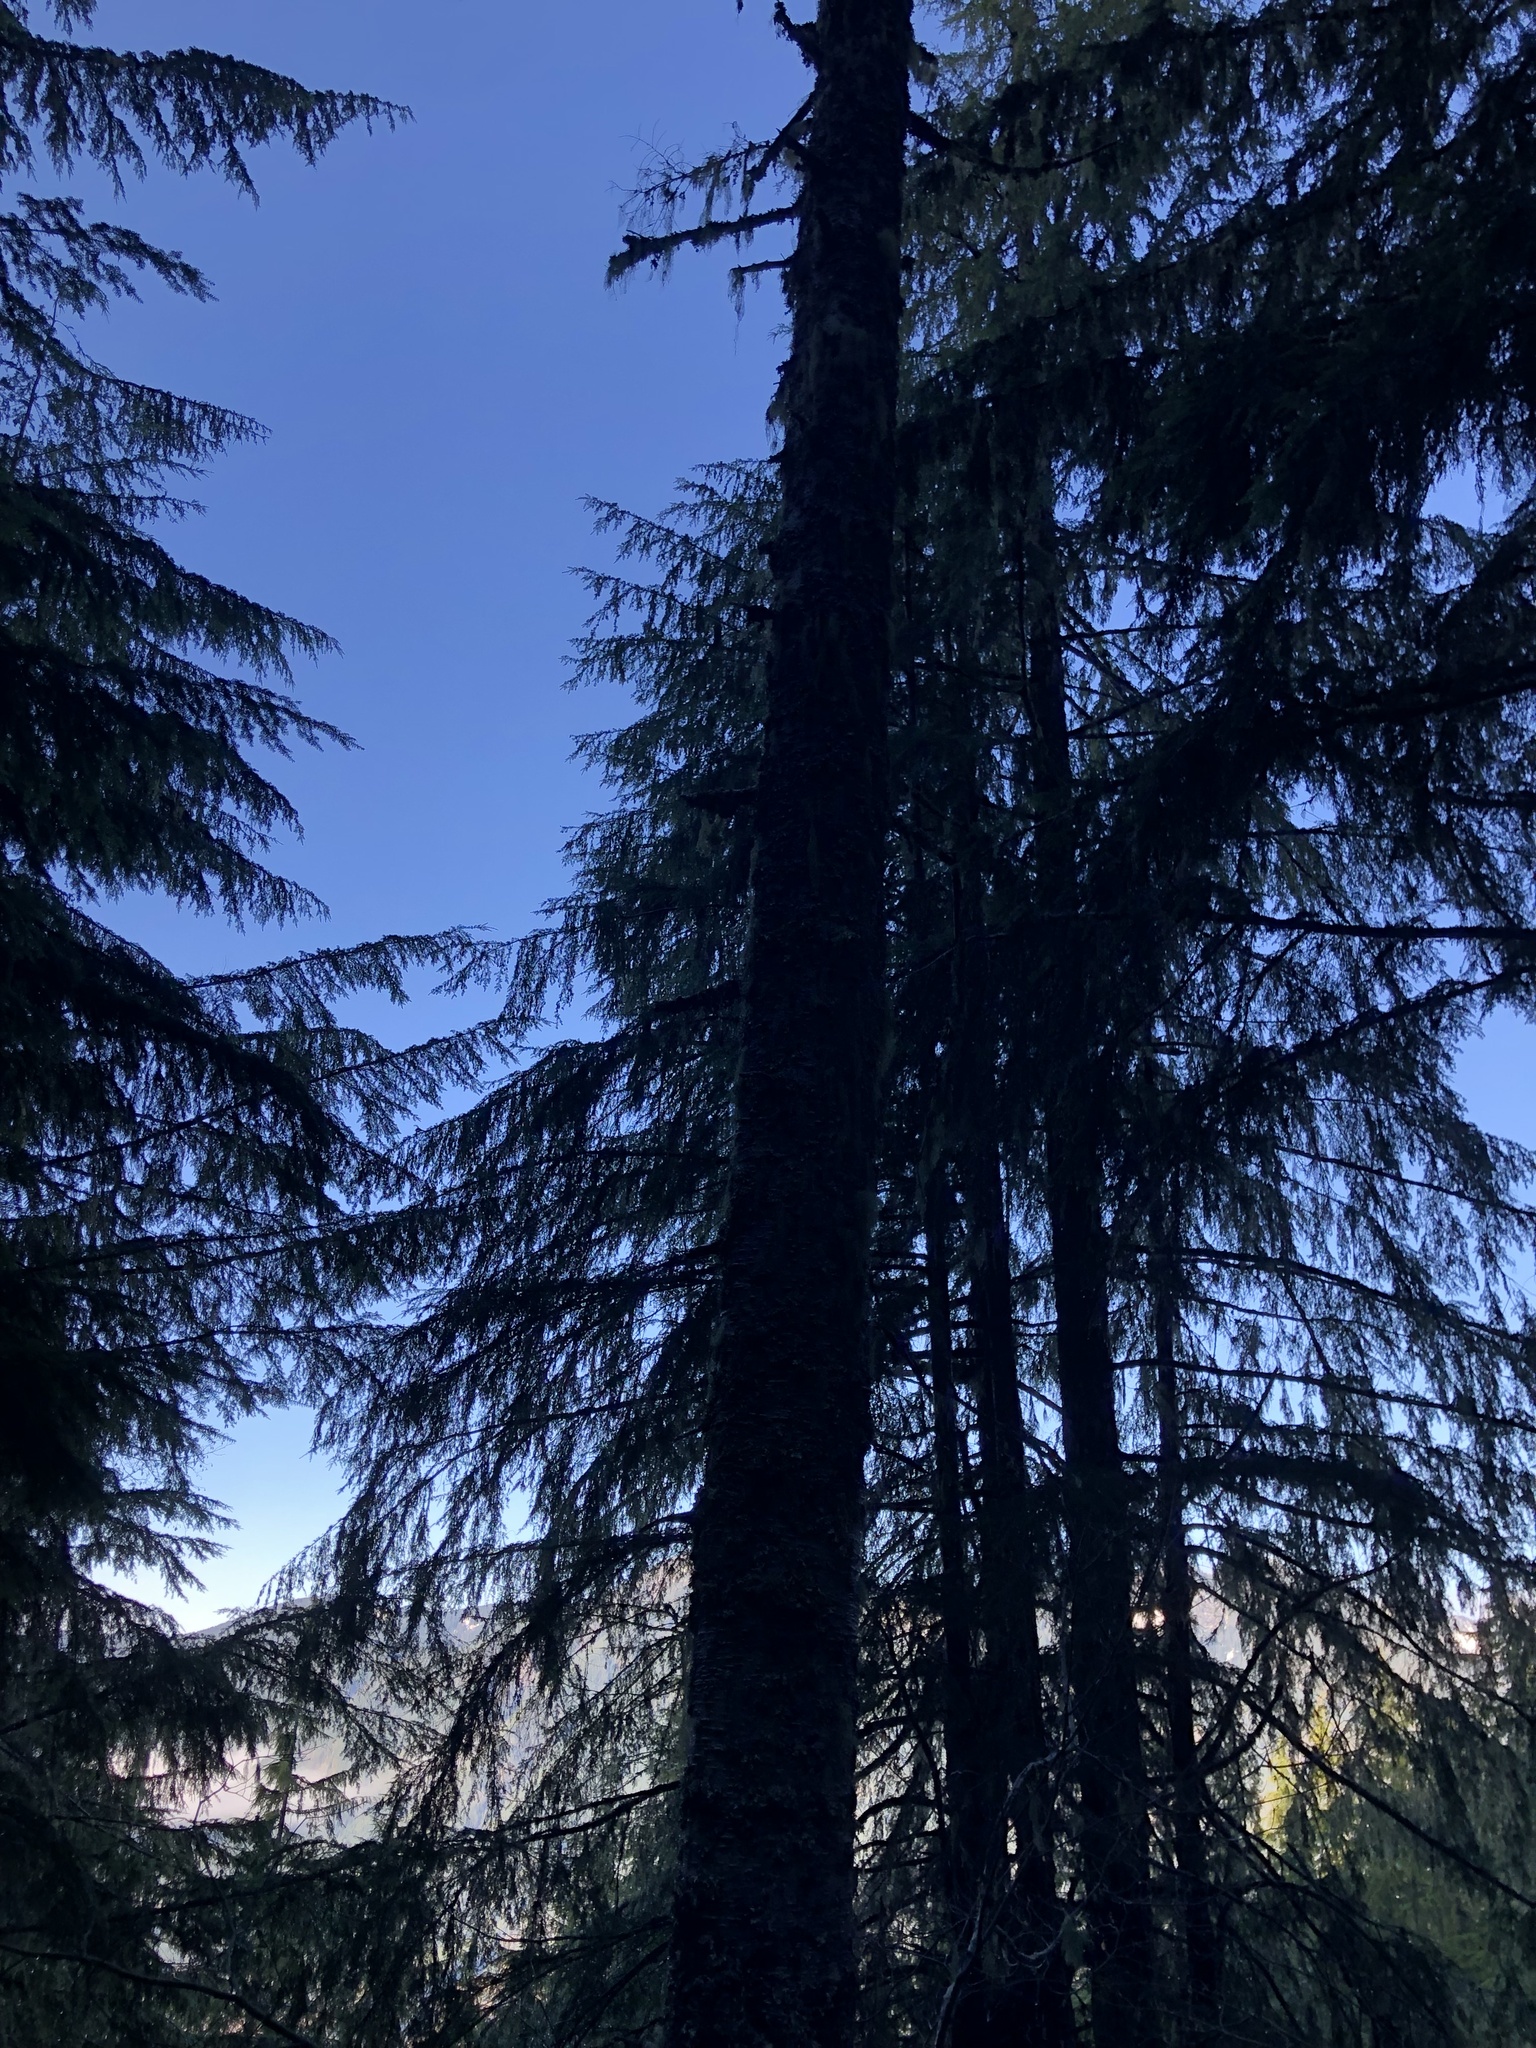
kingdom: Plantae
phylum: Tracheophyta
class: Pinopsida
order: Pinales
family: Pinaceae
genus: Abies
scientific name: Abies amabilis
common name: Pacific silver fir
